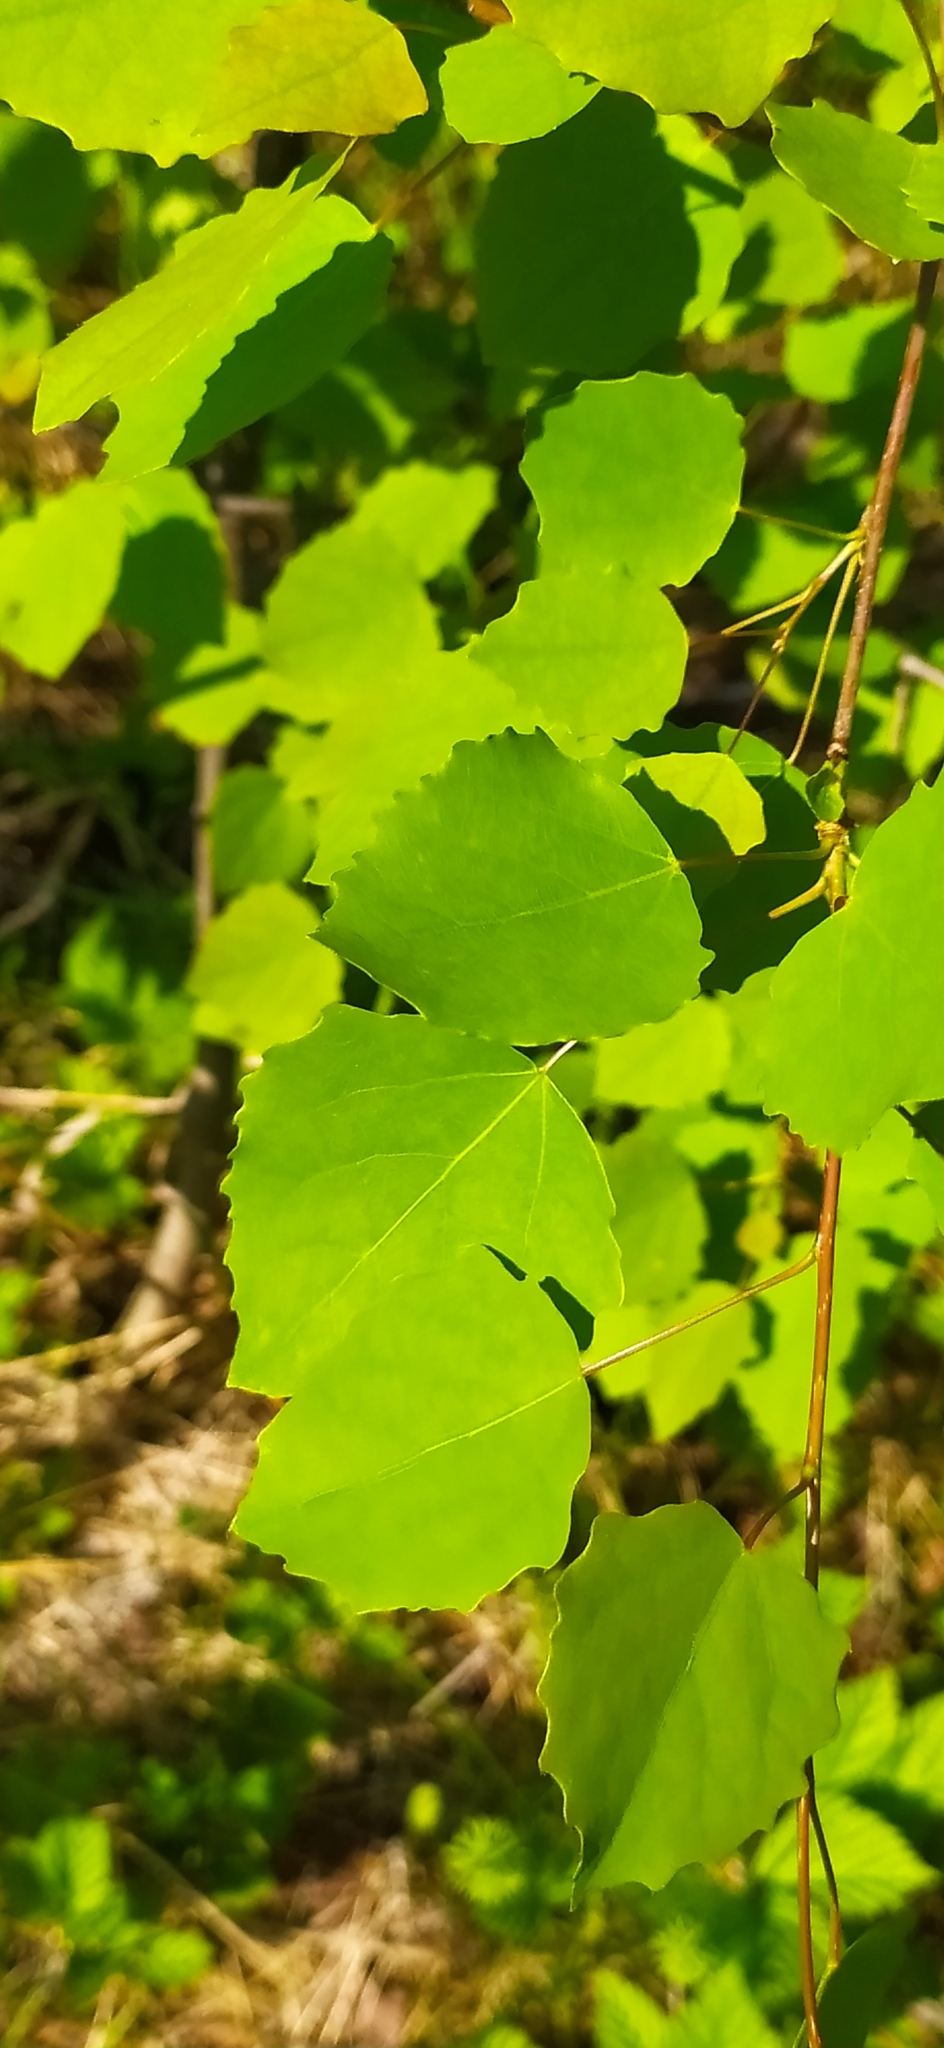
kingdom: Plantae
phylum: Tracheophyta
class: Magnoliopsida
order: Malpighiales
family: Salicaceae
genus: Populus
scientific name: Populus tremula
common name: European aspen
